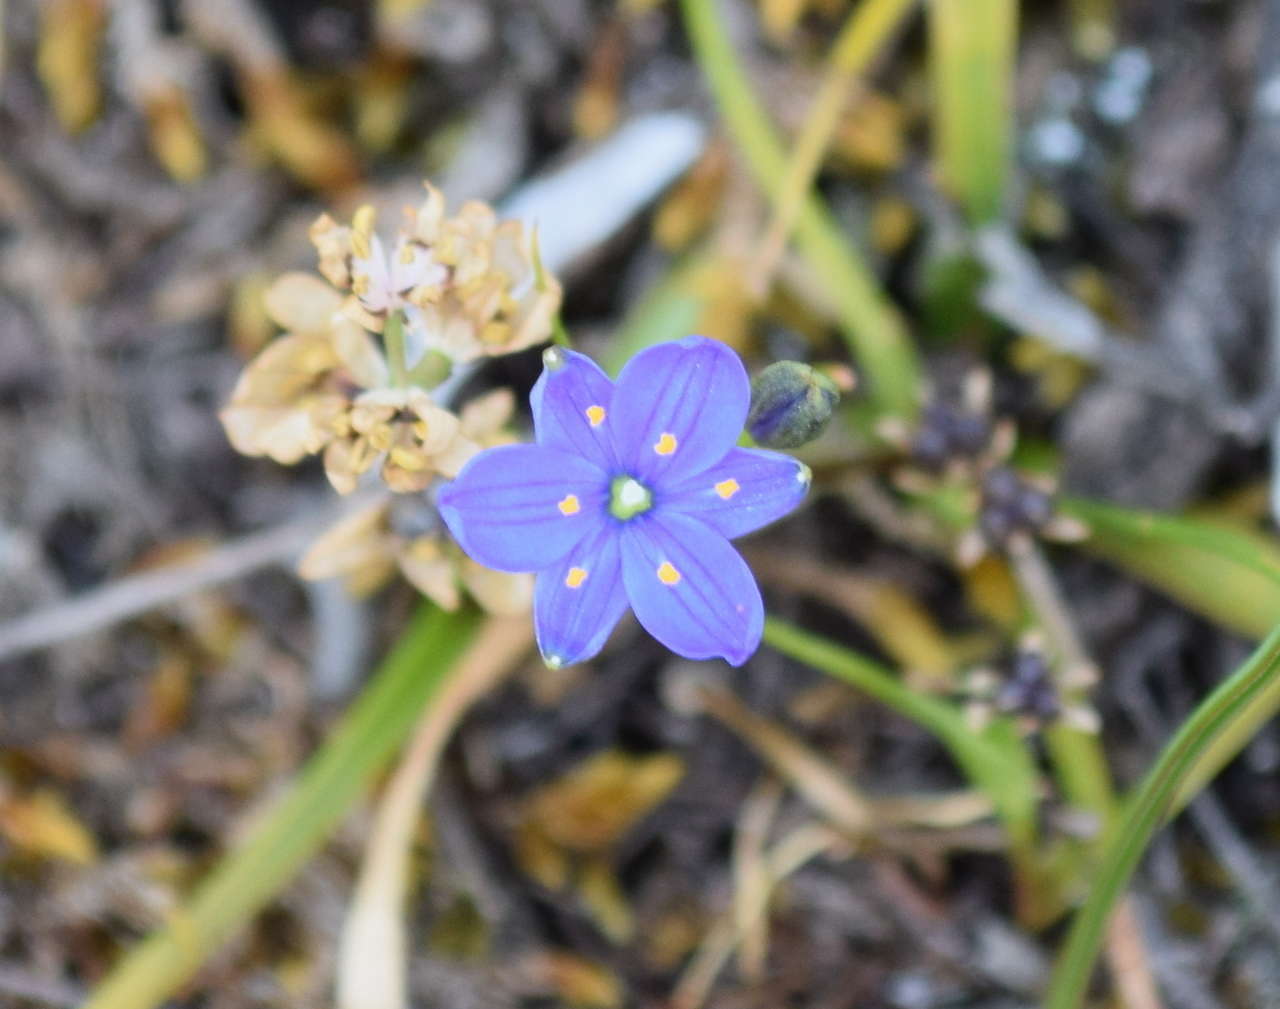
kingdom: Plantae
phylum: Tracheophyta
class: Liliopsida
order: Asparagales
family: Asphodelaceae
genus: Chamaescilla
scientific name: Chamaescilla corymbosa
